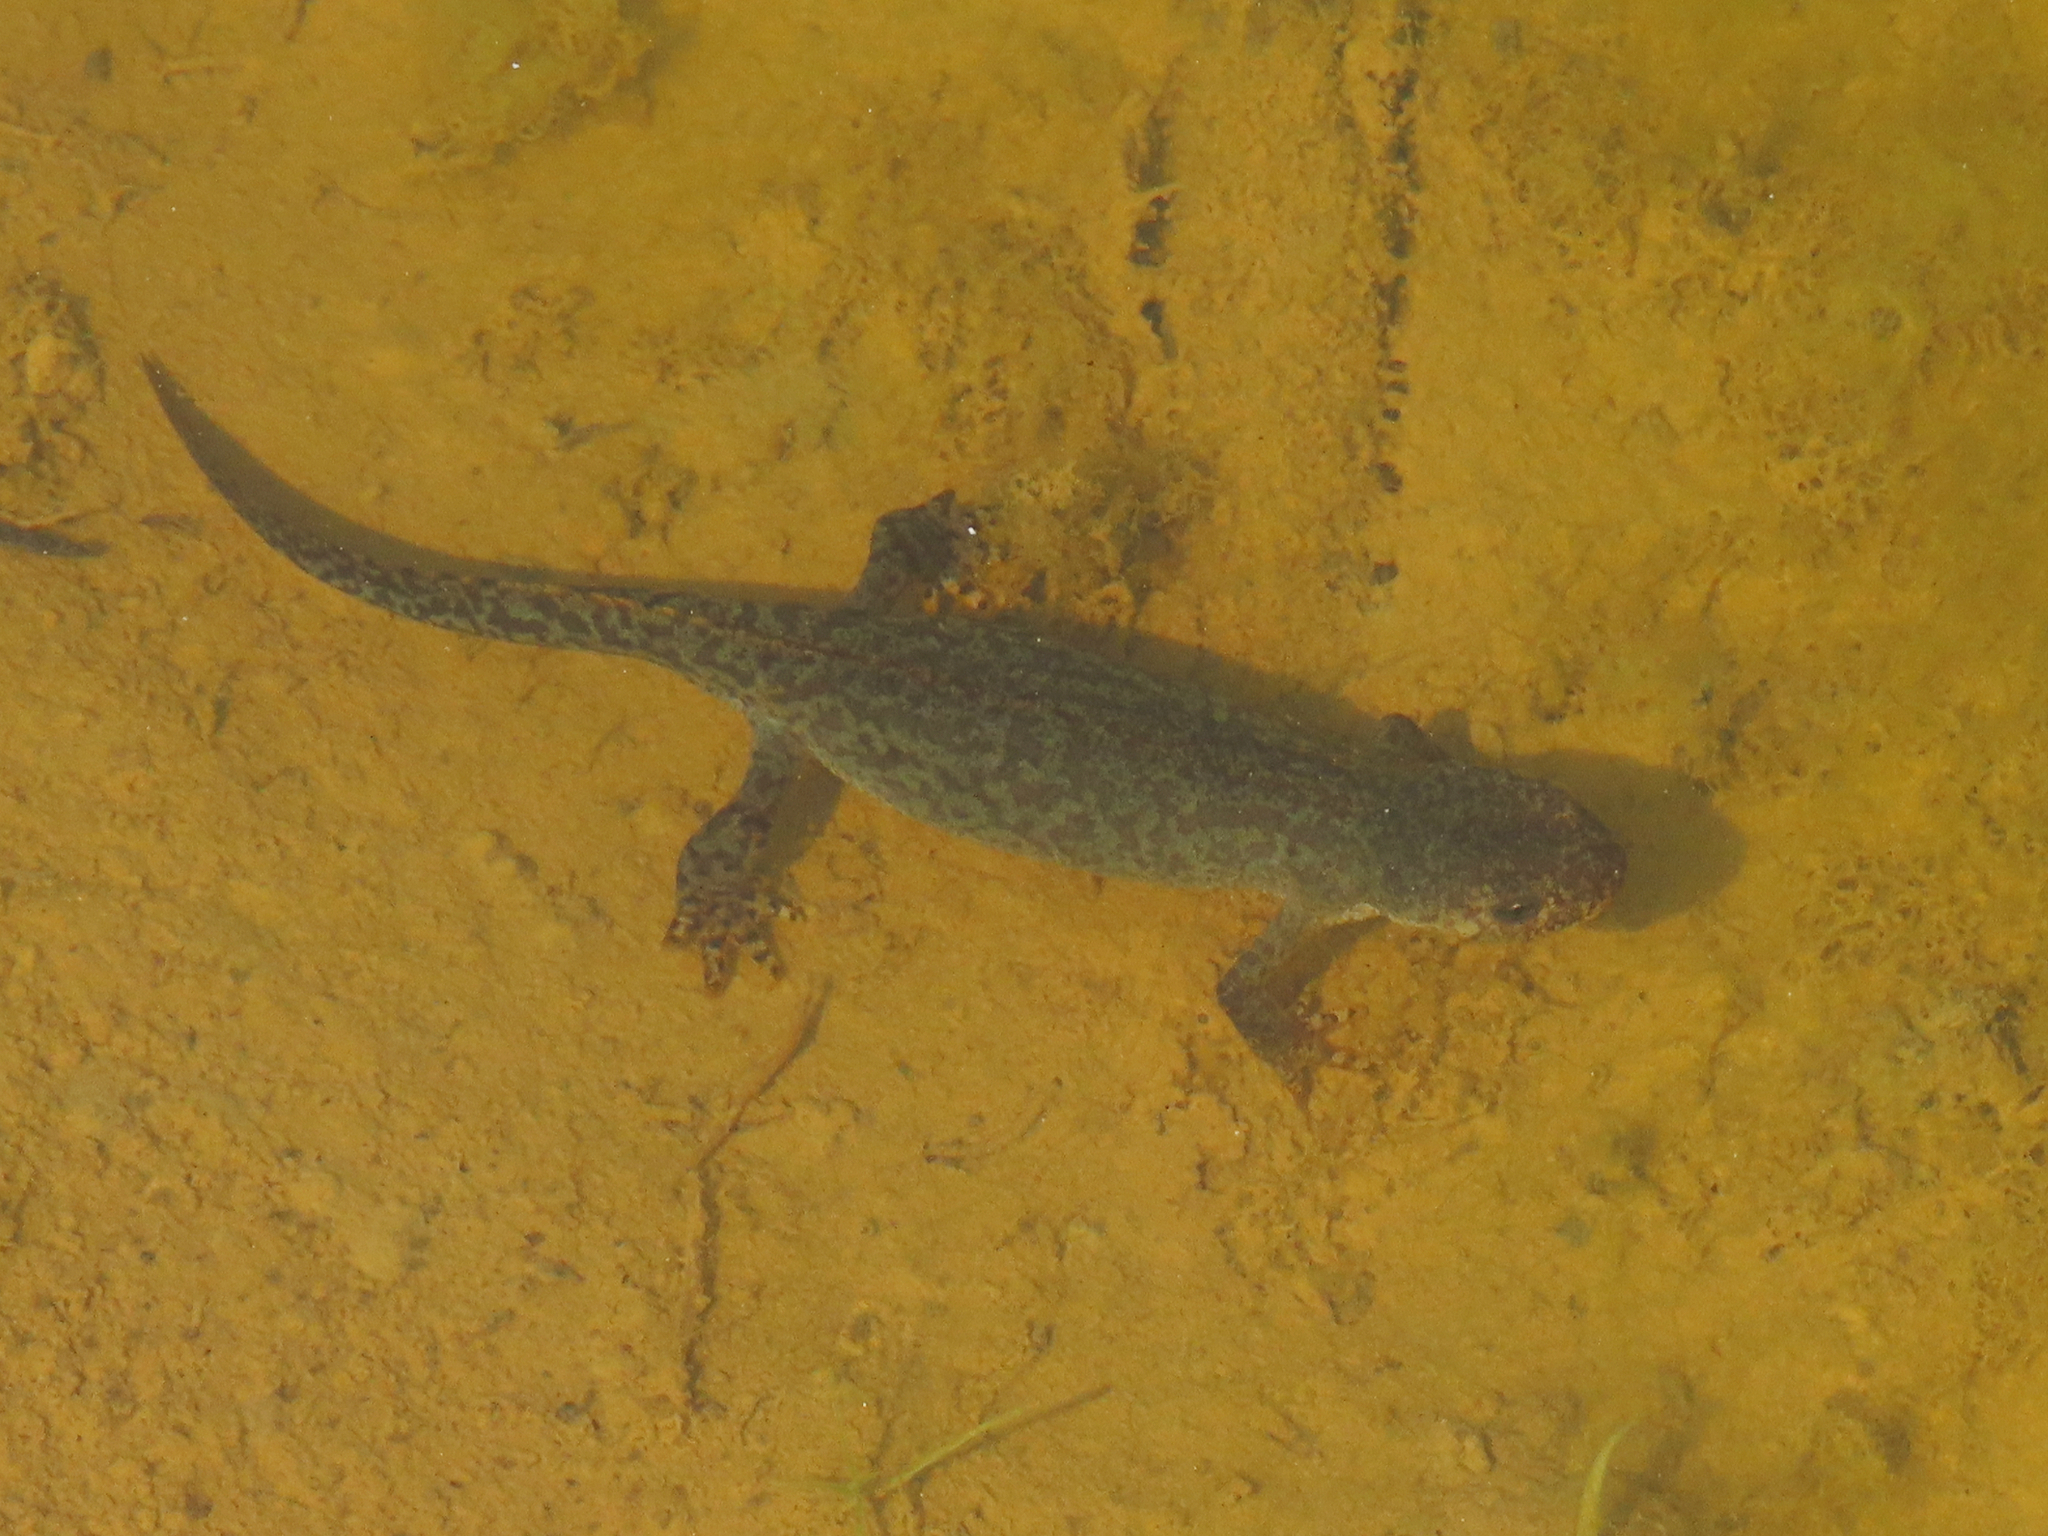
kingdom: Animalia
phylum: Chordata
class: Amphibia
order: Caudata
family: Salamandridae
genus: Ichthyosaura
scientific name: Ichthyosaura alpestris
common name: Alpine newt
